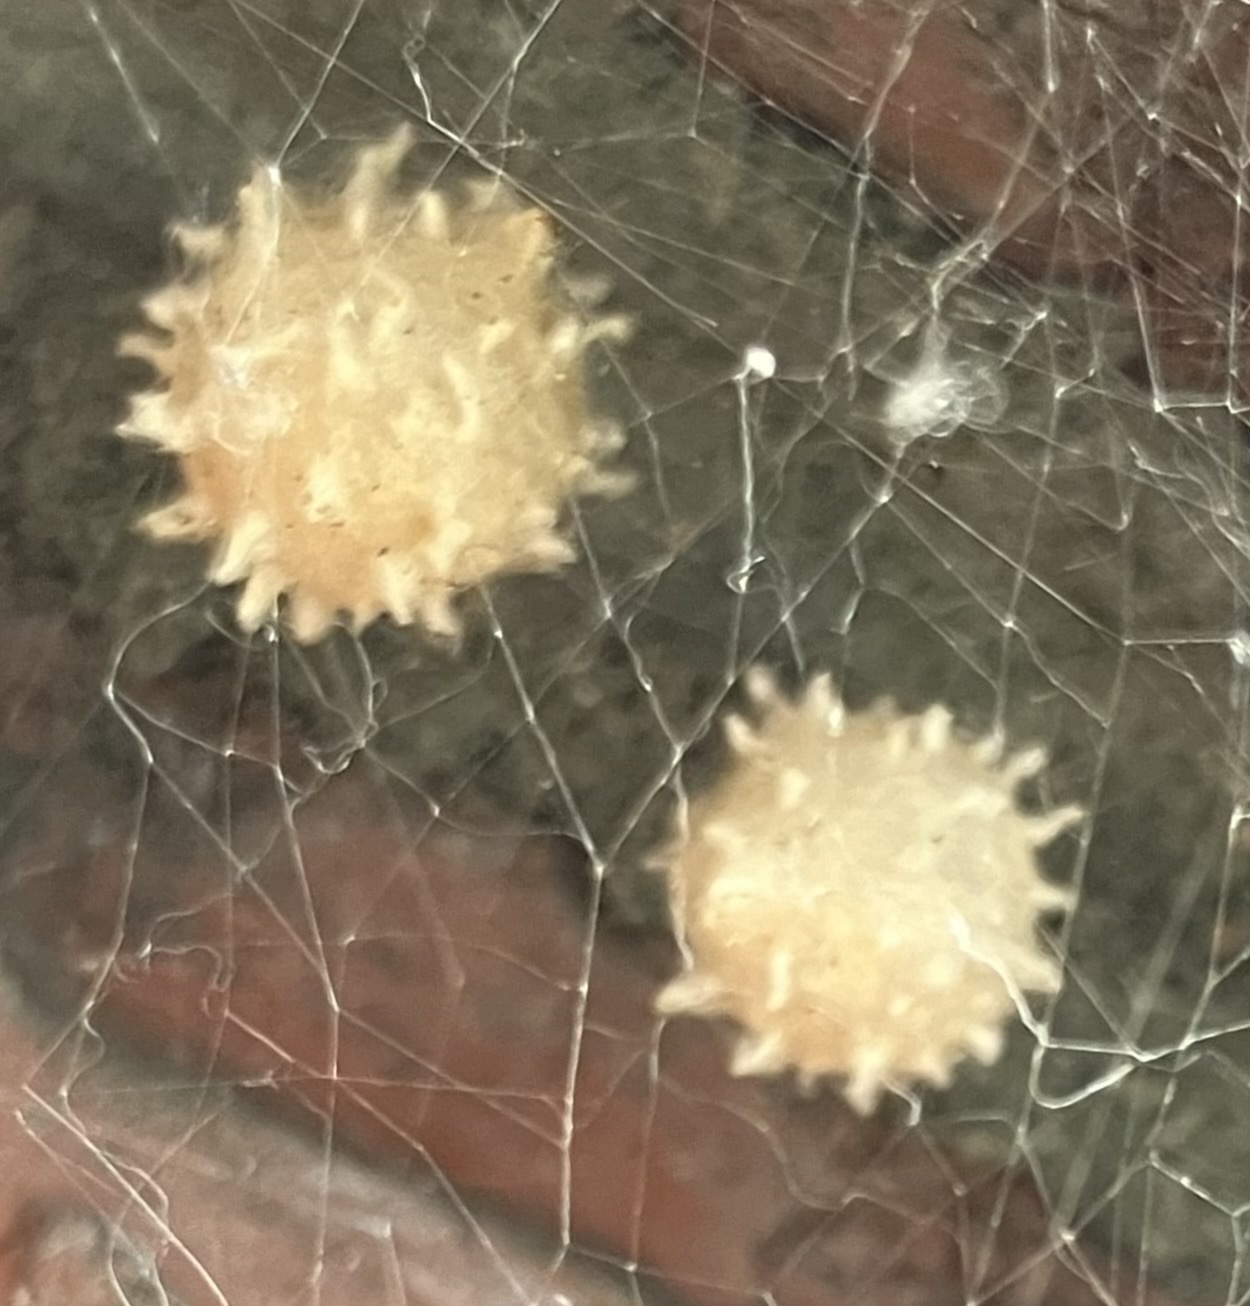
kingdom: Animalia
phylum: Arthropoda
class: Arachnida
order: Araneae
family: Theridiidae
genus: Latrodectus
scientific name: Latrodectus geometricus
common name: Brown widow spider
